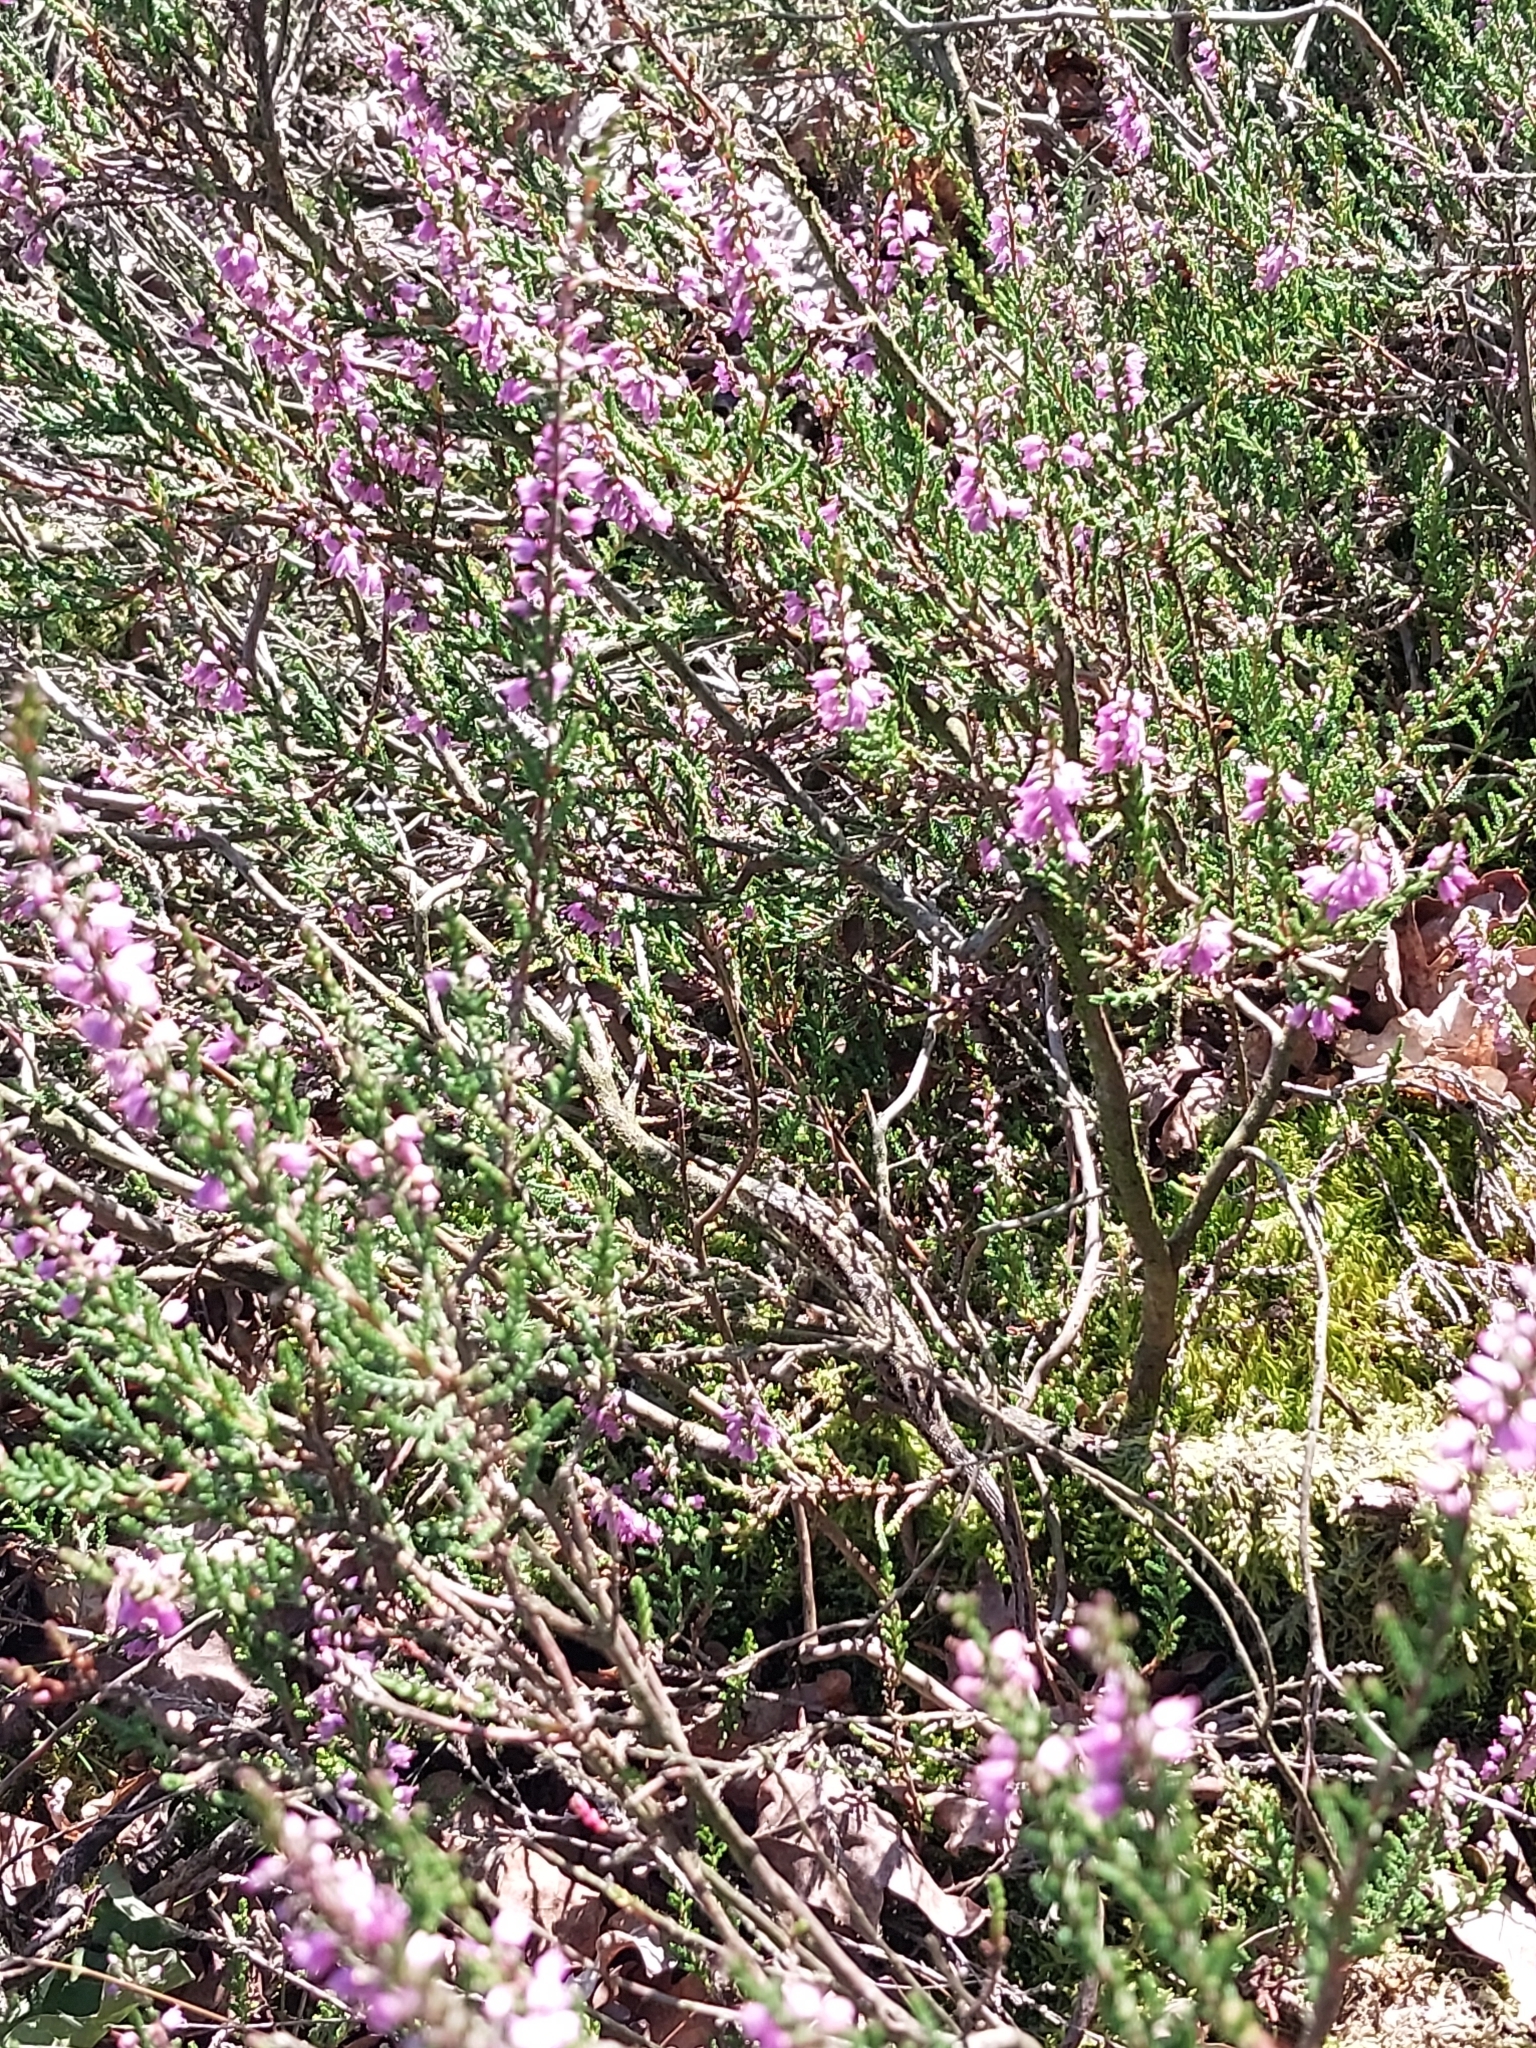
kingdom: Animalia
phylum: Chordata
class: Squamata
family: Lacertidae
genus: Lacerta
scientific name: Lacerta agilis
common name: Sand lizard
